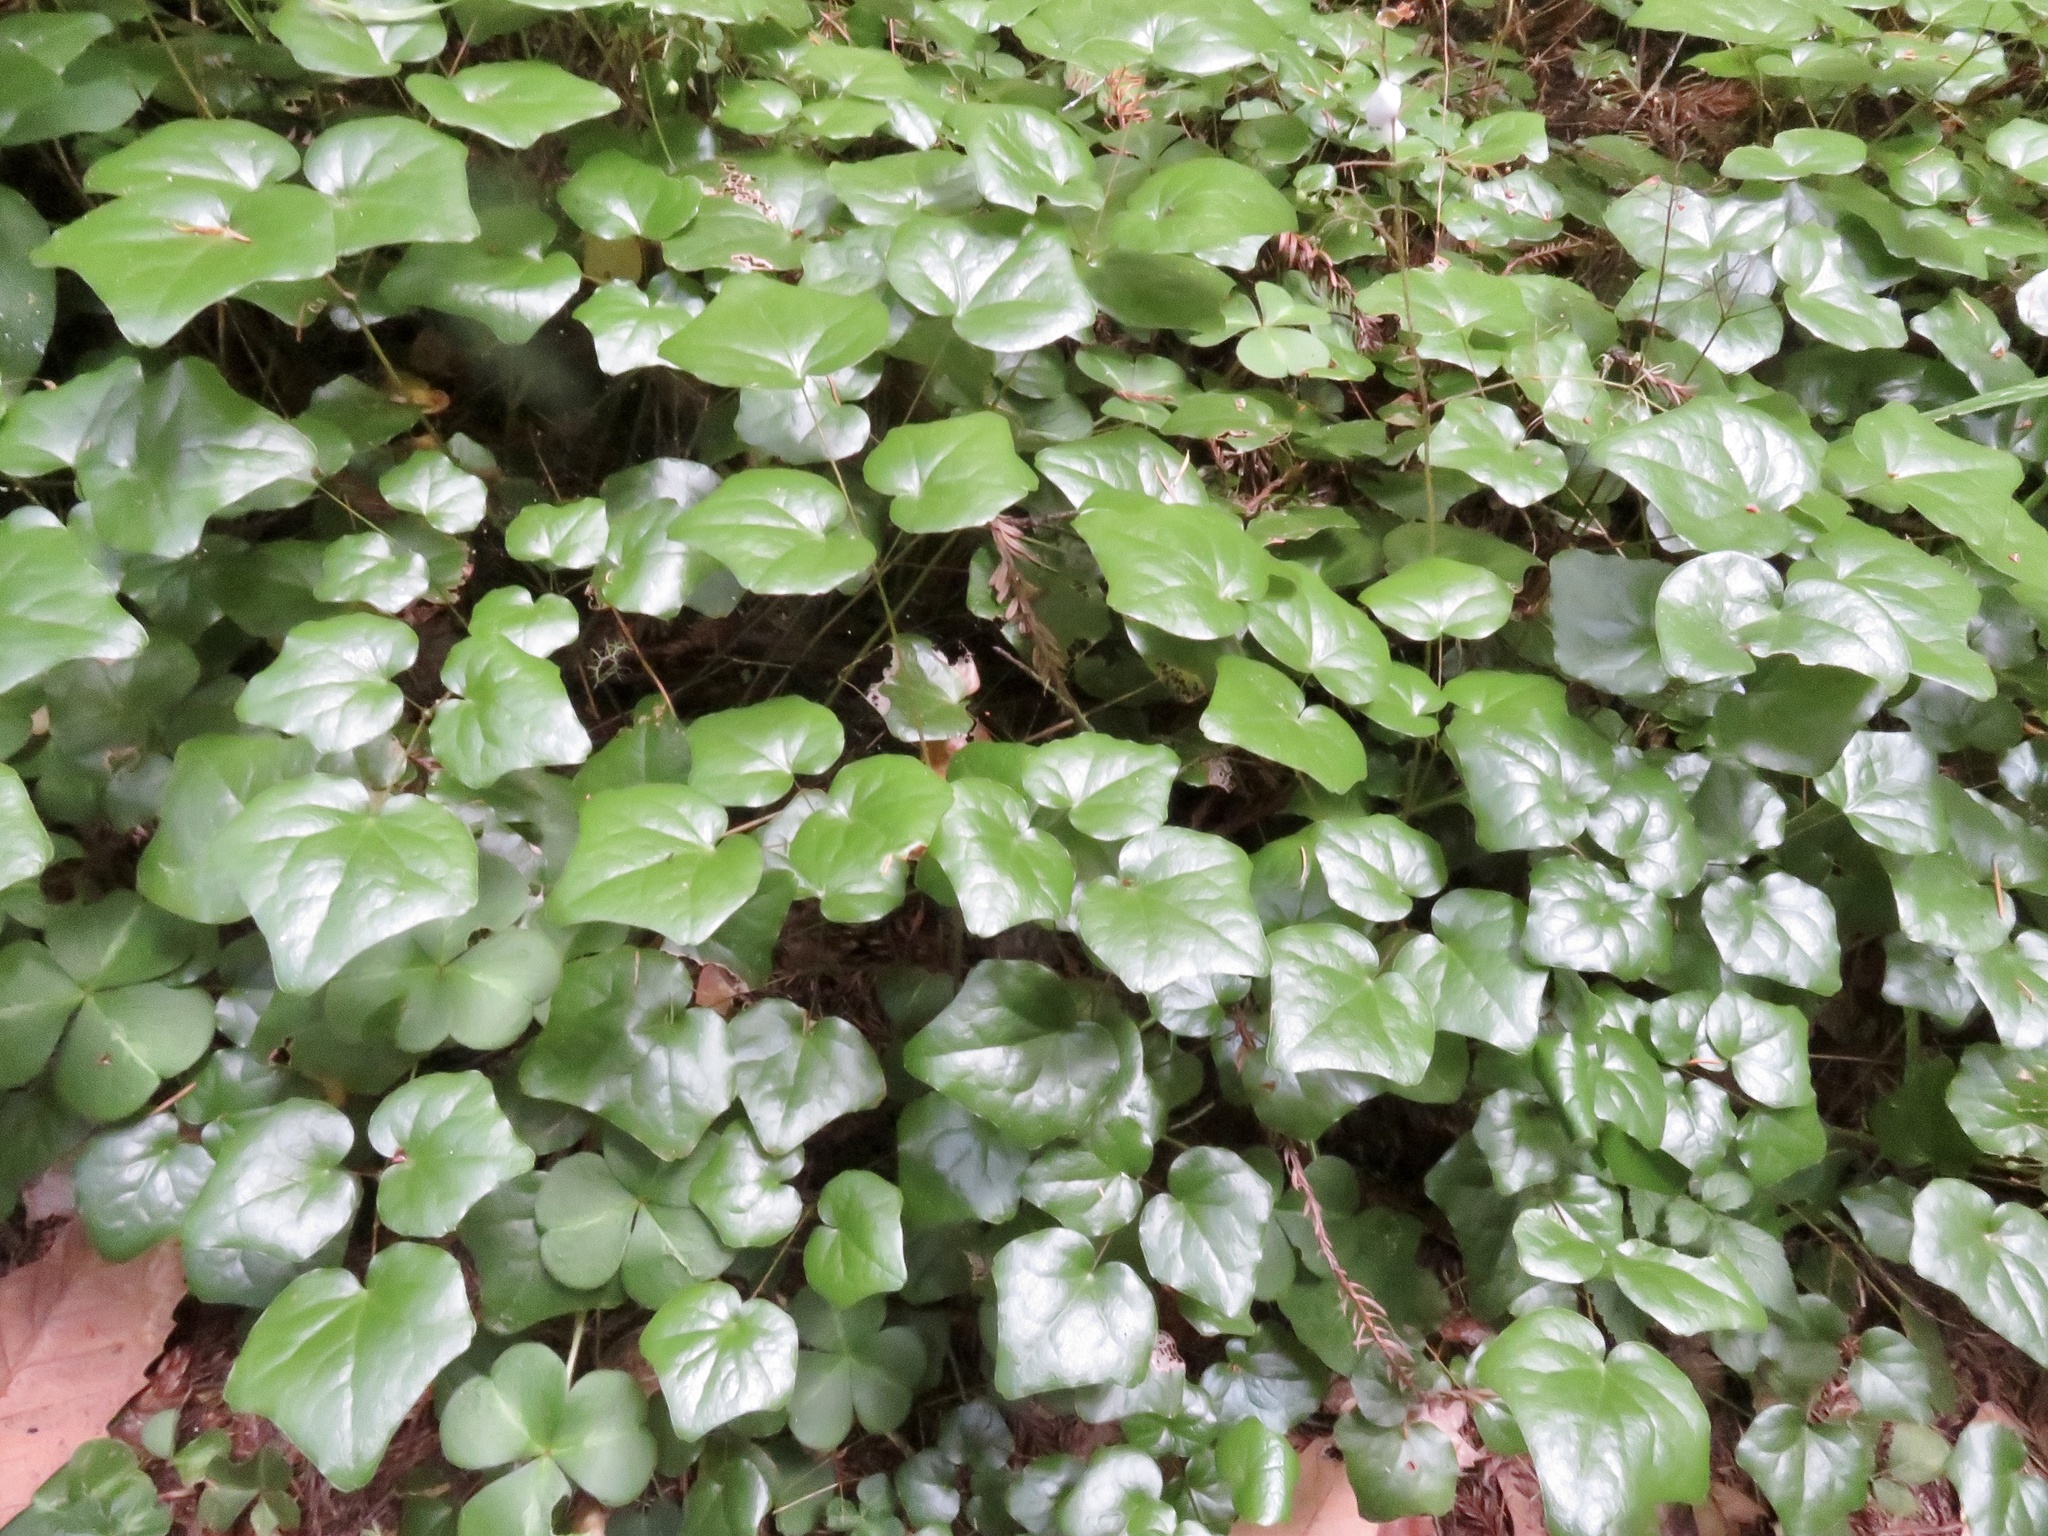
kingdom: Plantae
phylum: Tracheophyta
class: Magnoliopsida
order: Ranunculales
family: Berberidaceae
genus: Vancouveria
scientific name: Vancouveria planipetala
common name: Redwood-ivy
